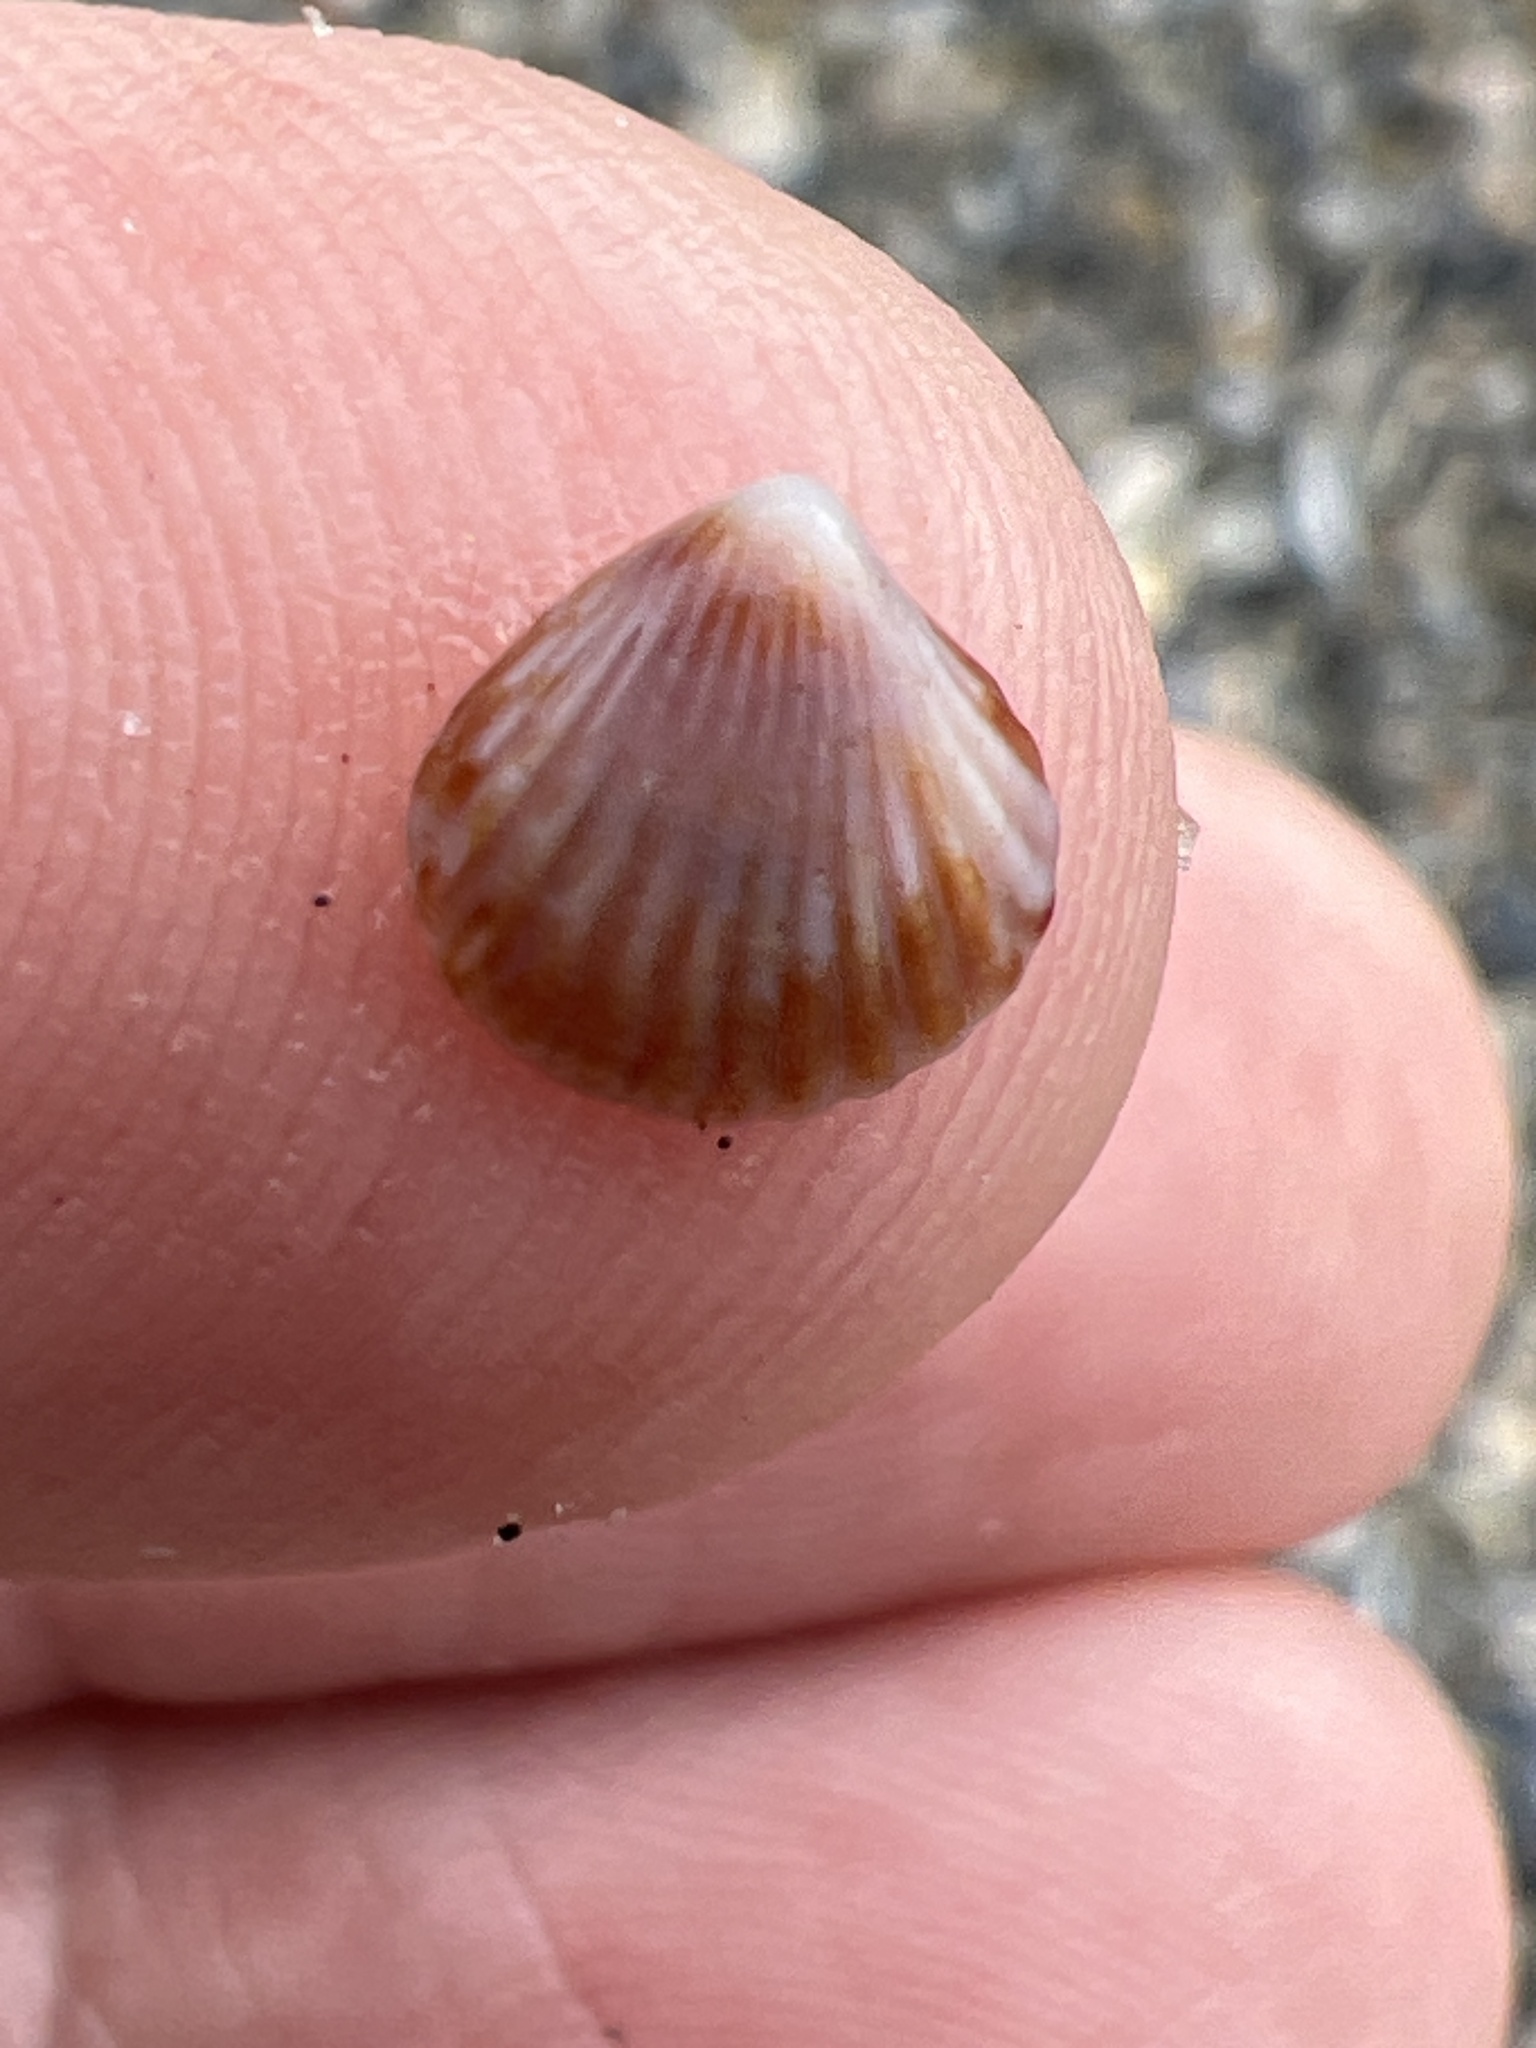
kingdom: Animalia
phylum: Mollusca
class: Bivalvia
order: Carditida
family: Carditidae
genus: Pleuromeris
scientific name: Pleuromeris tridentata
